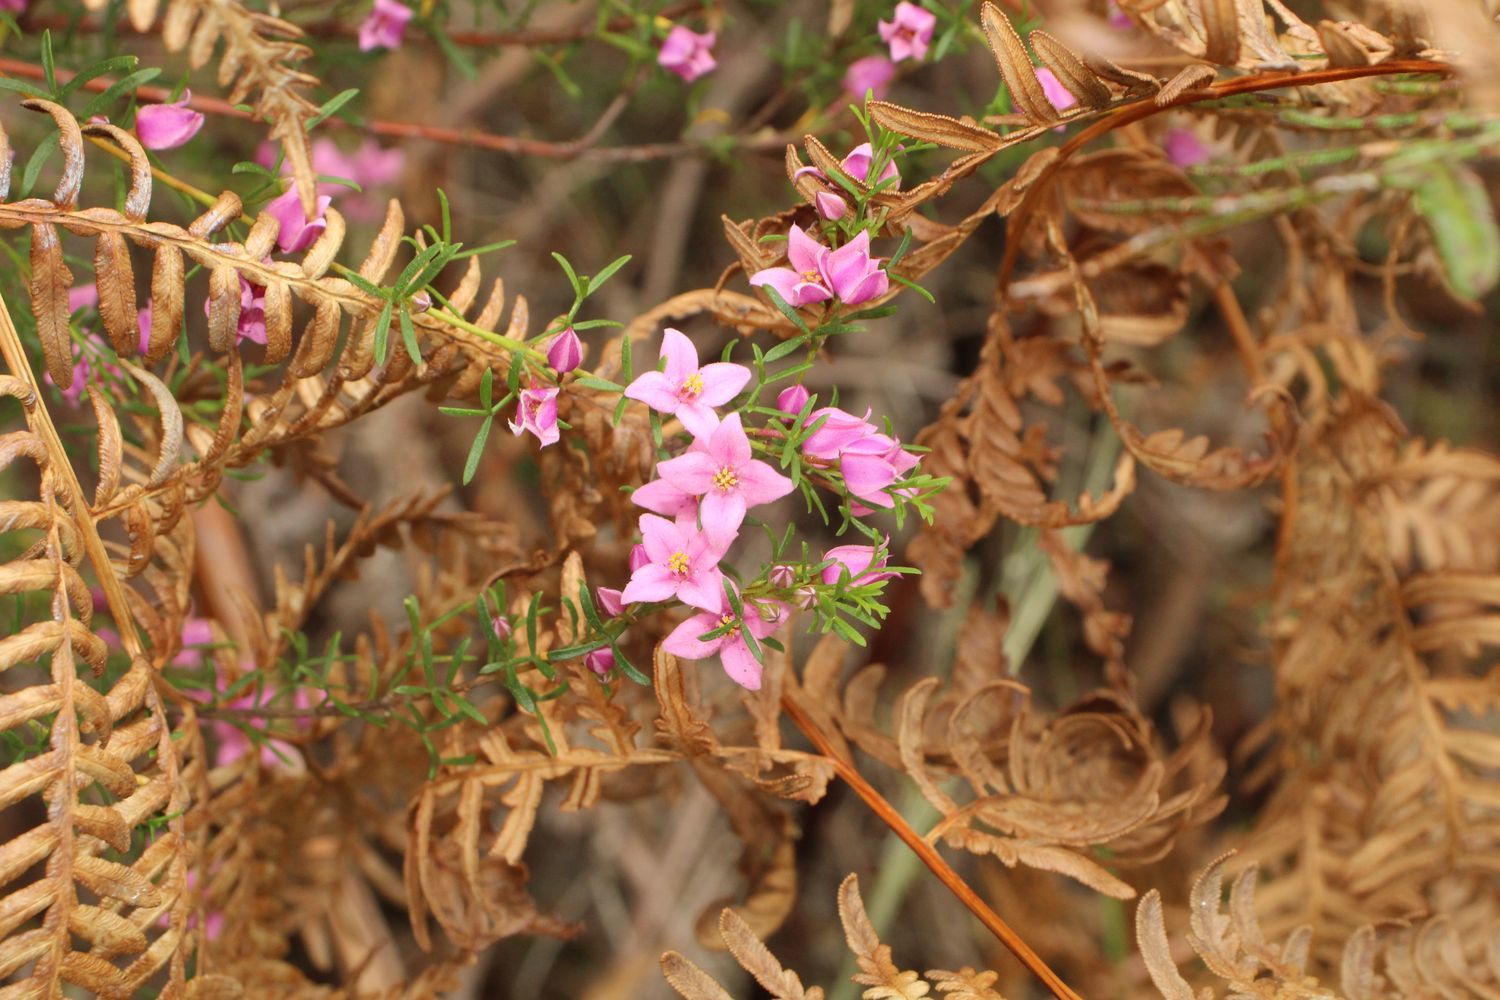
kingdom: Plantae
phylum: Tracheophyta
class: Magnoliopsida
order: Sapindales
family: Rutaceae
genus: Boronia
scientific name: Boronia virgata
